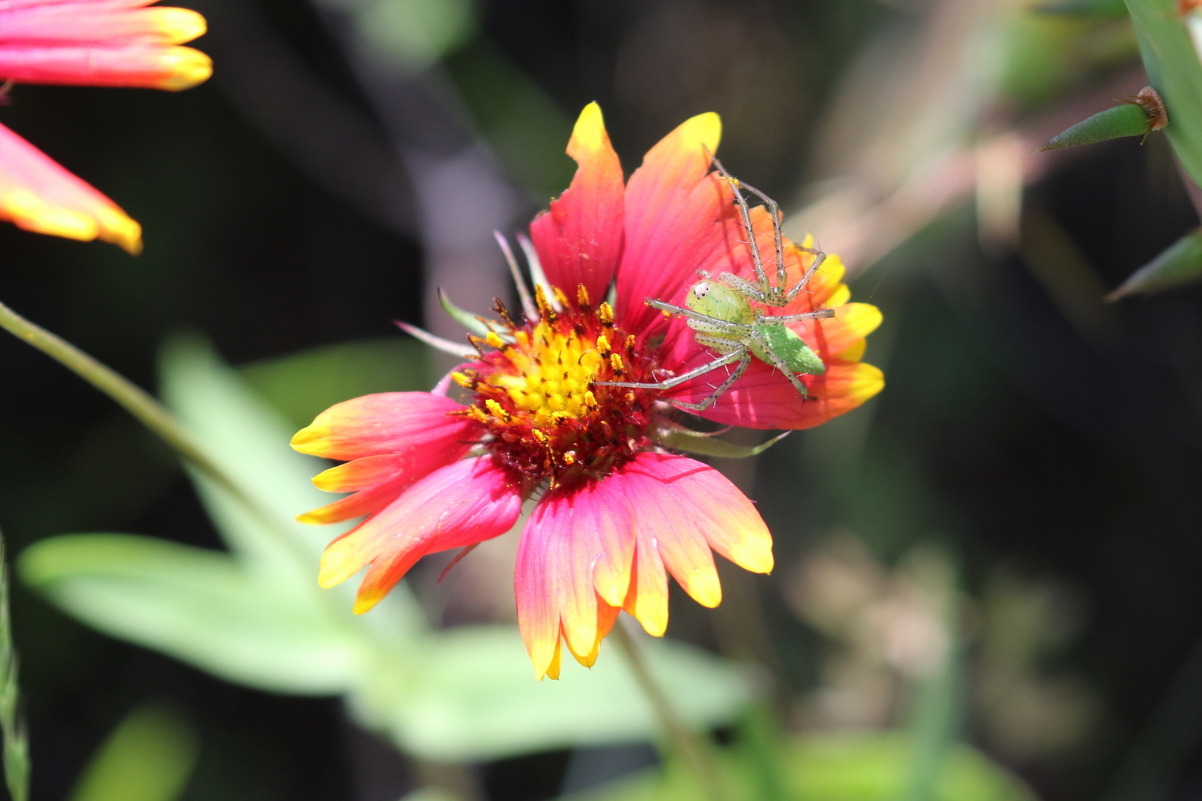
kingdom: Animalia
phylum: Arthropoda
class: Arachnida
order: Araneae
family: Oxyopidae
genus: Peucetia
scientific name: Peucetia viridans
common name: Lynx spiders
